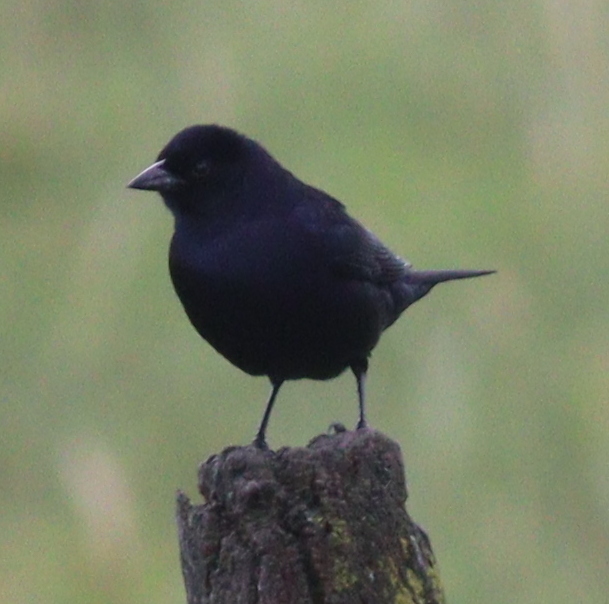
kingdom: Animalia
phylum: Chordata
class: Aves
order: Passeriformes
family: Icteridae
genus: Molothrus
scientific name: Molothrus bonariensis
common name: Shiny cowbird
